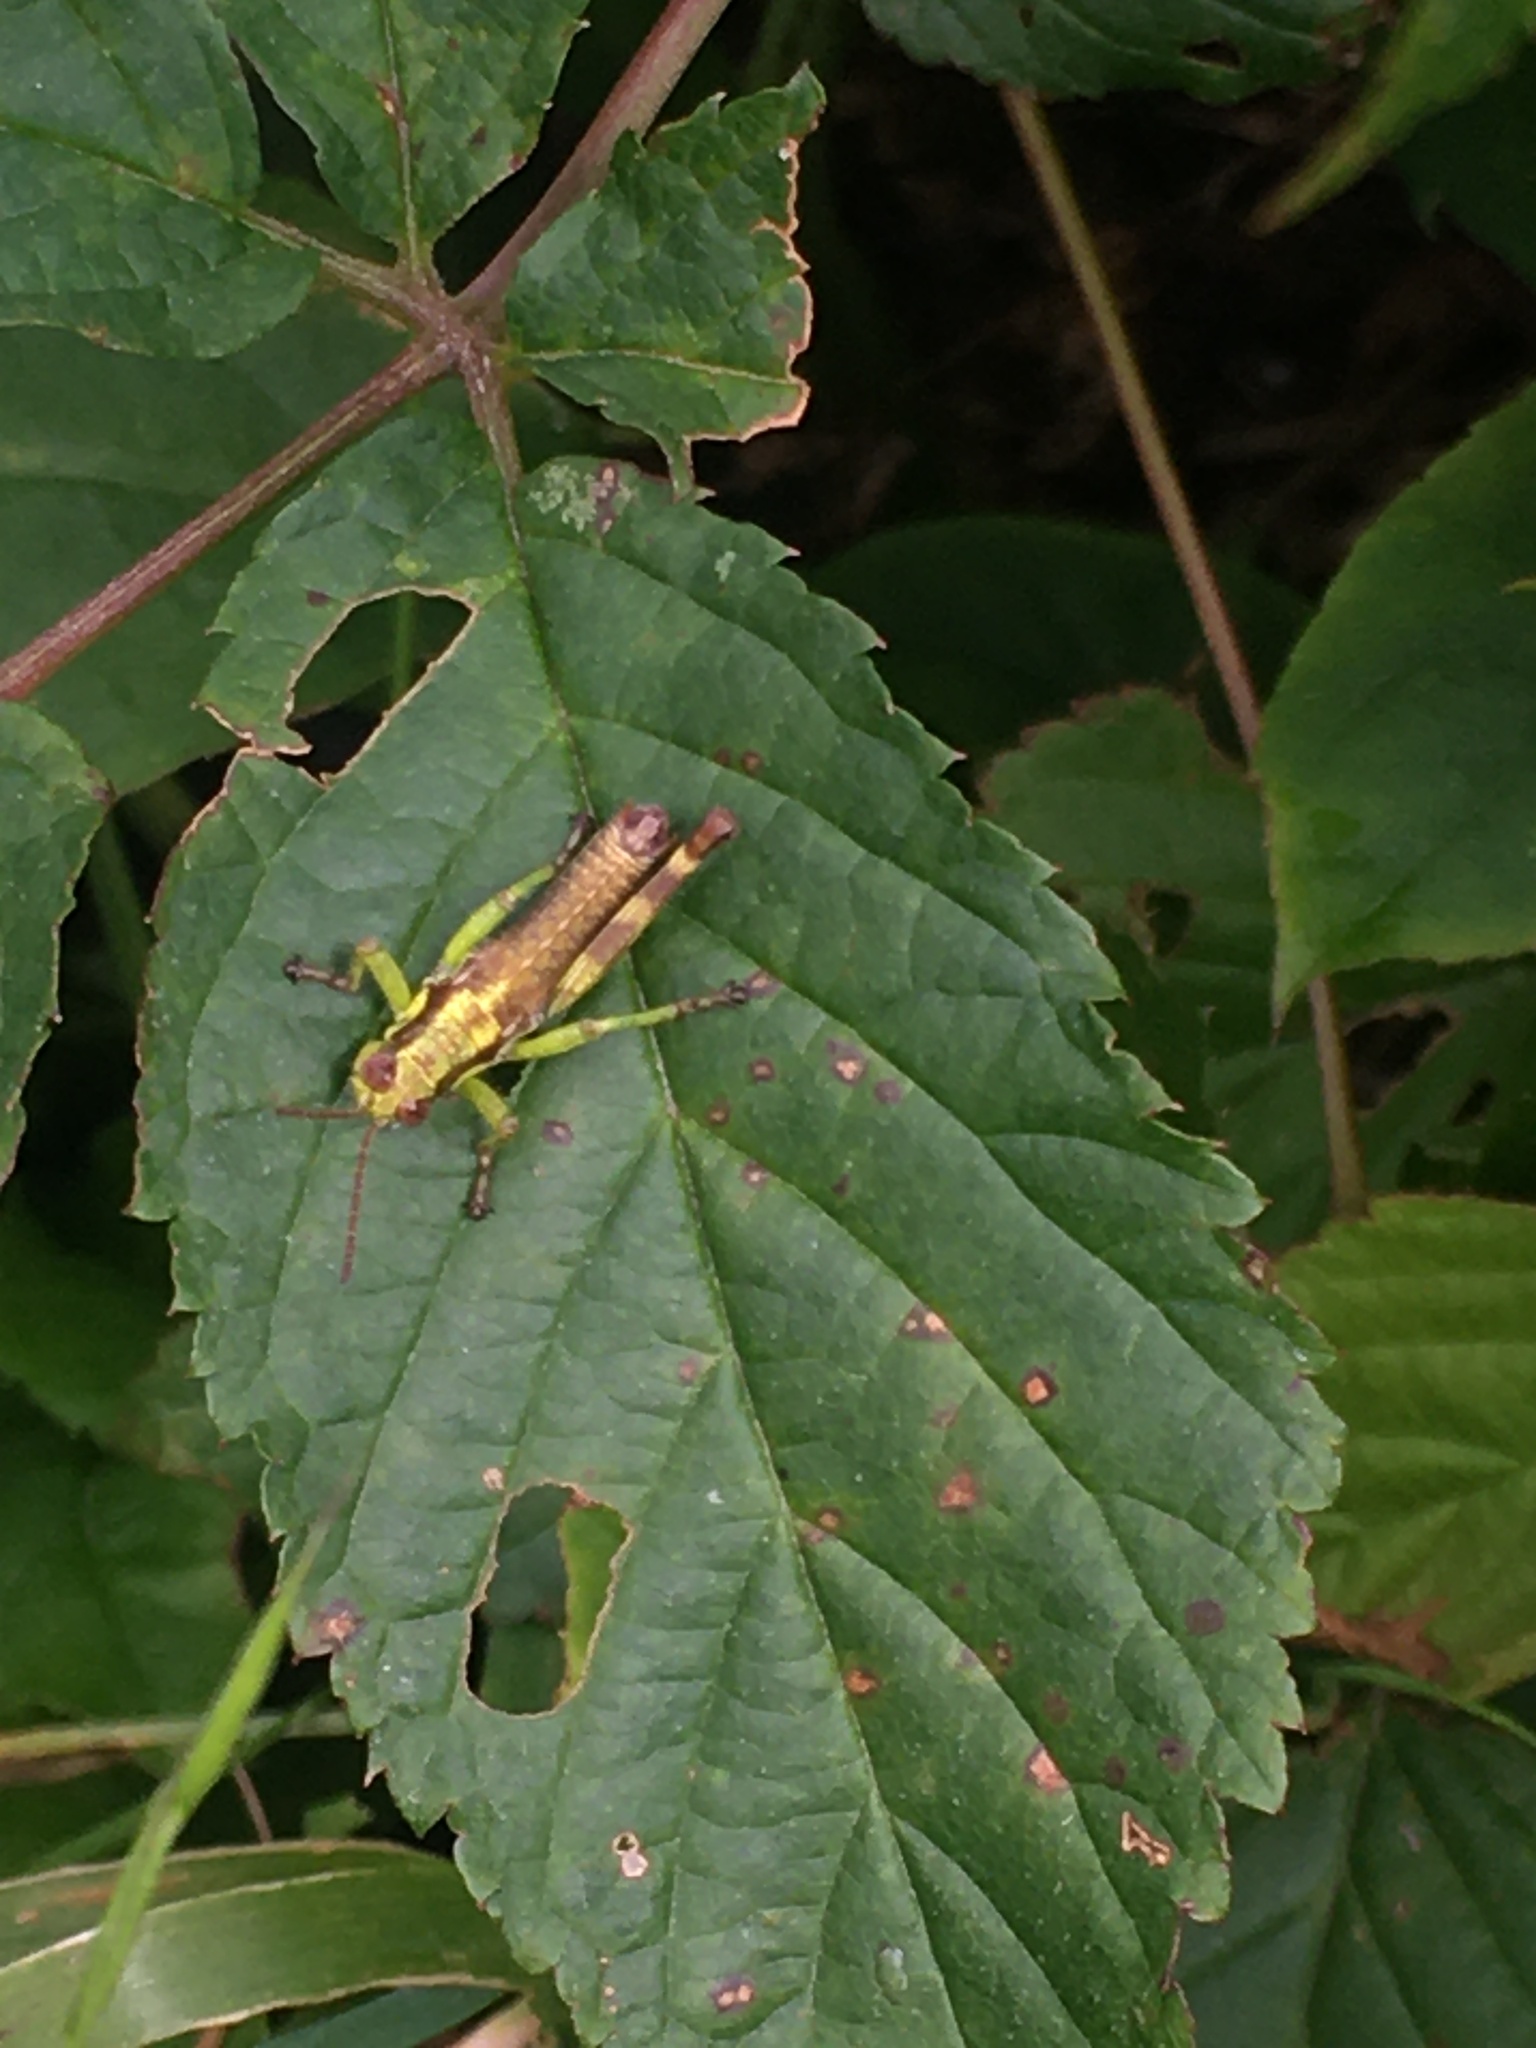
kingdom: Animalia
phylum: Arthropoda
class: Insecta
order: Orthoptera
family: Acrididae
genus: Booneacris
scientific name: Booneacris glacialis
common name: Wingless mountain grasshopper
